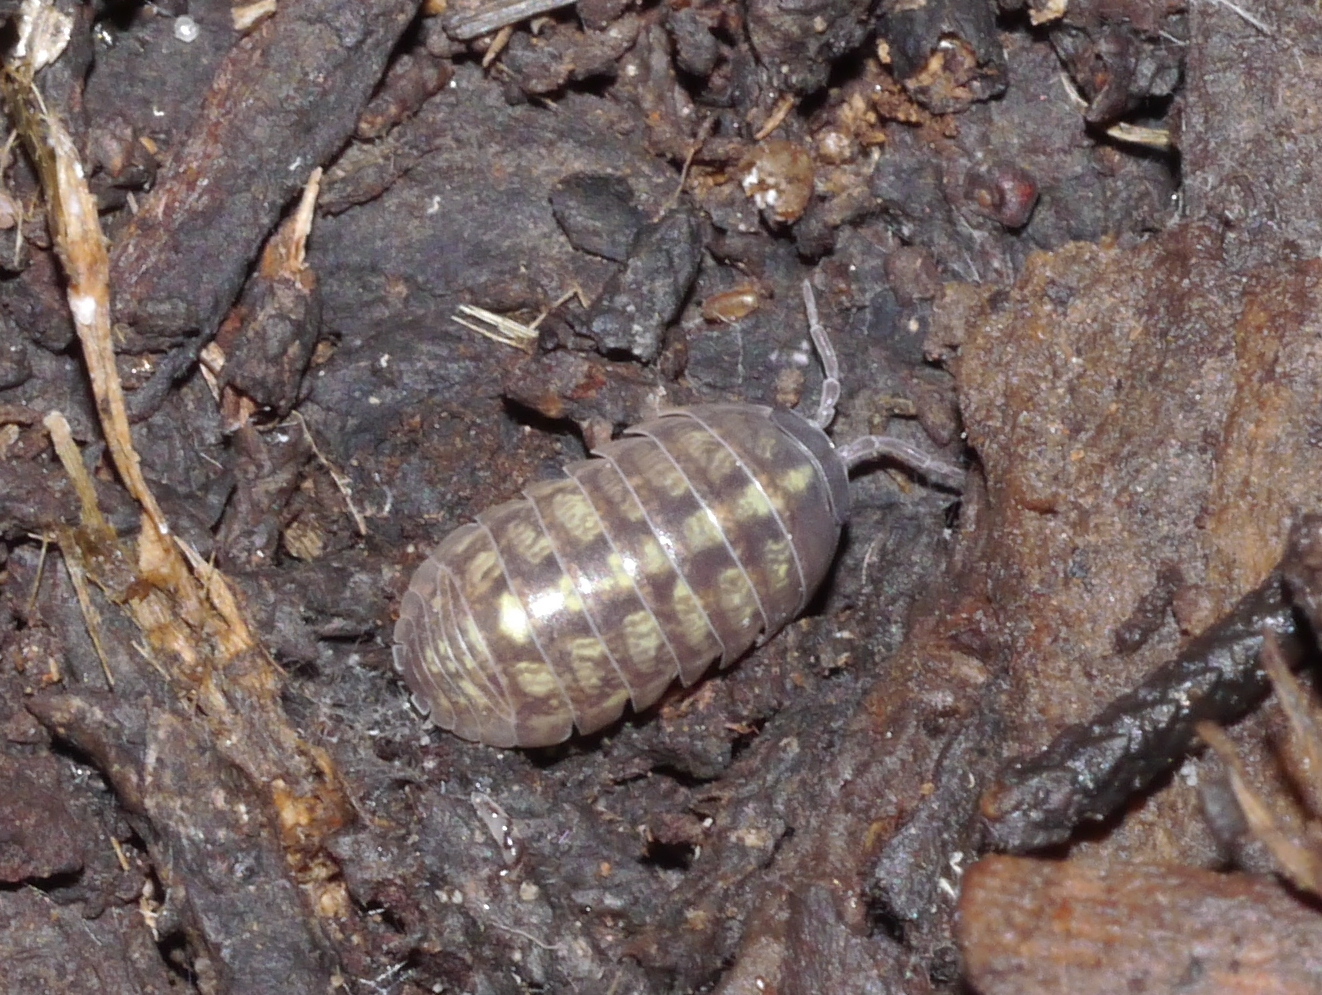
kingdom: Animalia
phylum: Arthropoda
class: Malacostraca
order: Isopoda
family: Armadillidiidae
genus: Armadillidium
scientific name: Armadillidium vulgare
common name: Common pill woodlouse
